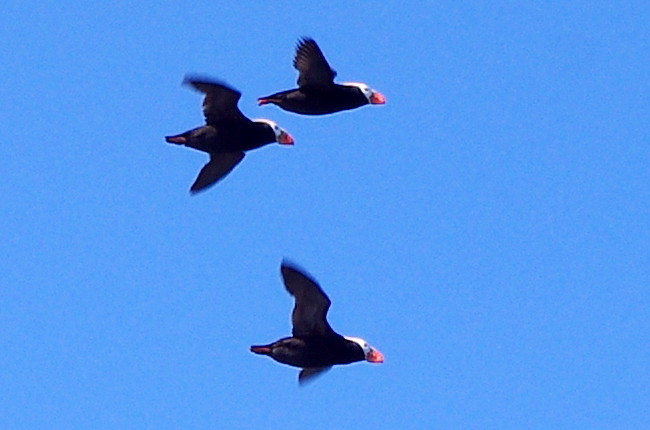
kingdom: Animalia
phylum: Chordata
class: Aves
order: Charadriiformes
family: Alcidae
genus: Fratercula
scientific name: Fratercula cirrhata
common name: Tufted puffin
